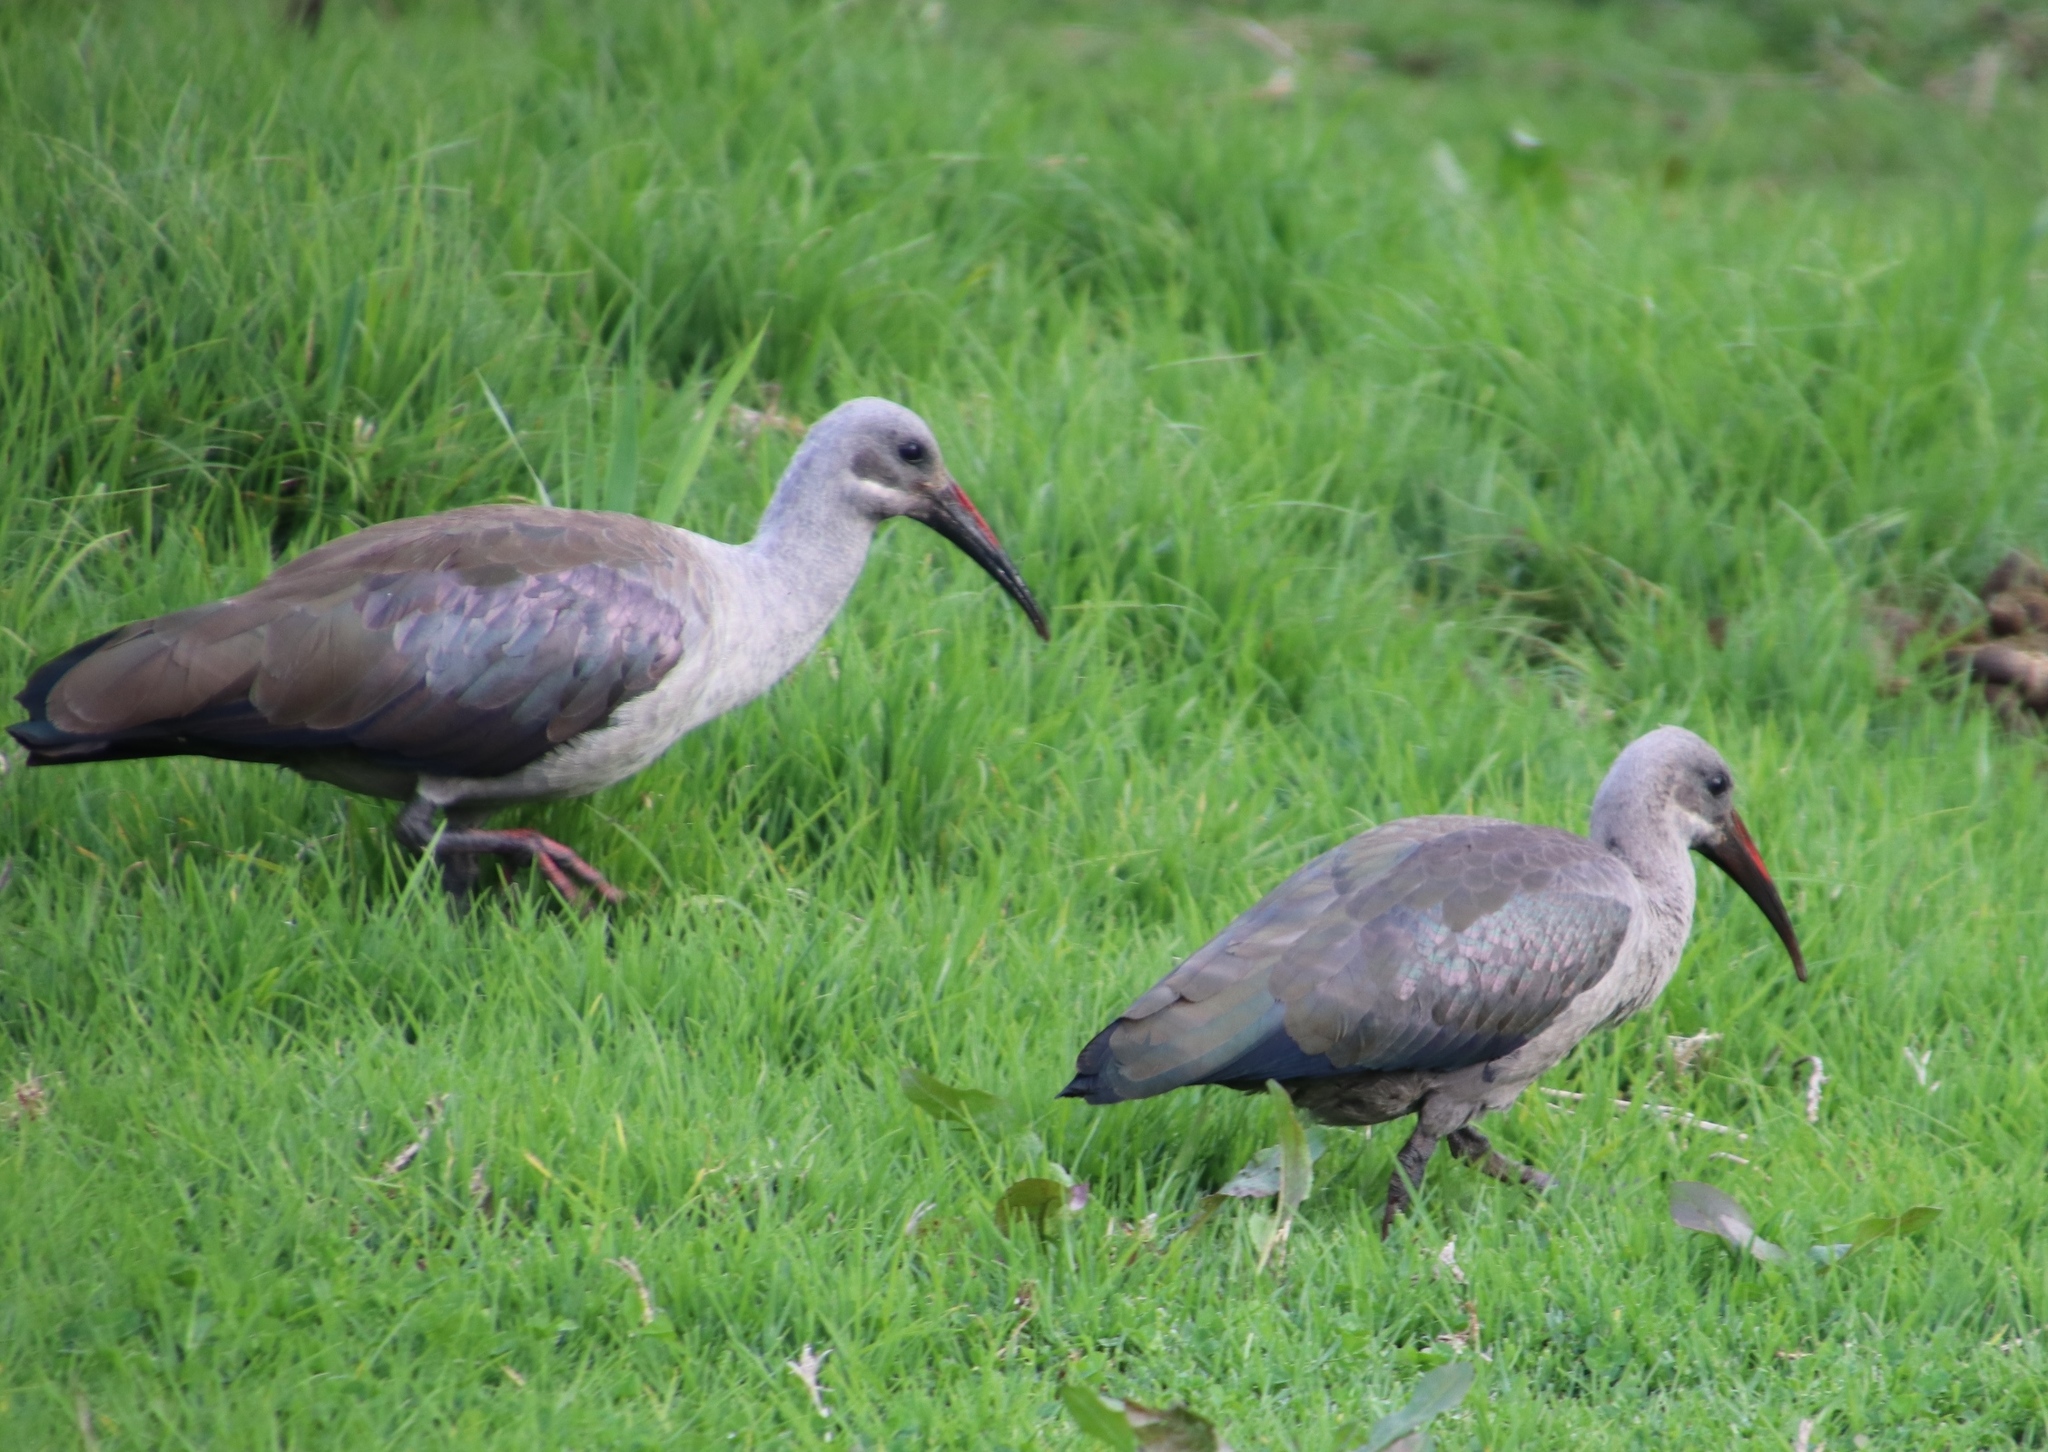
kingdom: Animalia
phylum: Chordata
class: Aves
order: Pelecaniformes
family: Threskiornithidae
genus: Bostrychia
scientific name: Bostrychia hagedash
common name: Hadada ibis
